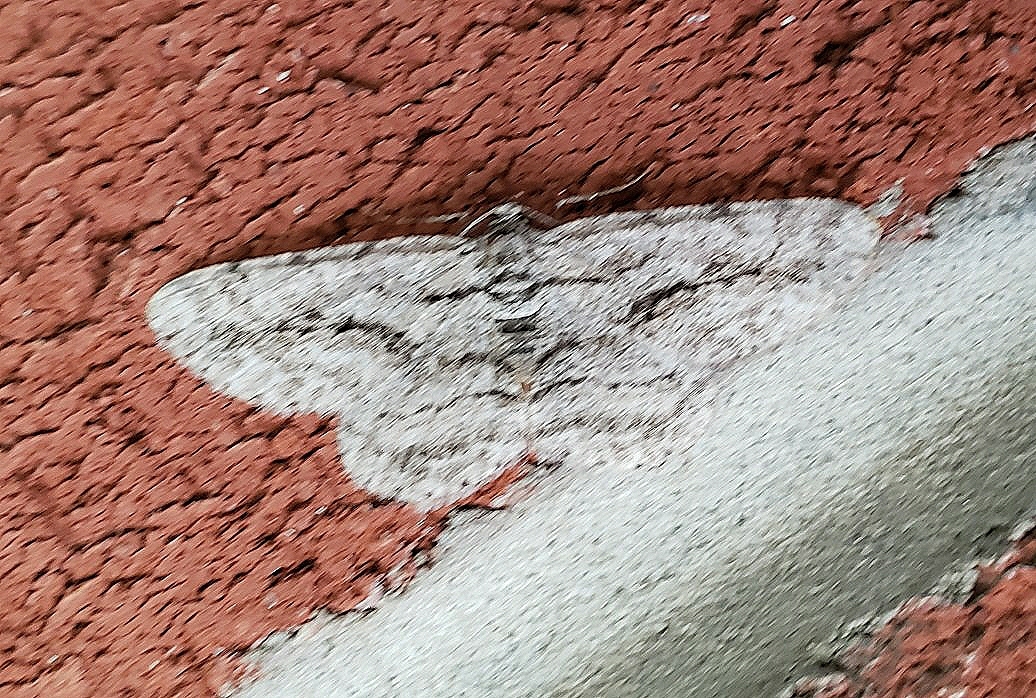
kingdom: Animalia
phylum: Arthropoda
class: Insecta
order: Lepidoptera
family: Geometridae
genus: Anavitrinella
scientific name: Anavitrinella pampinaria
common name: Common gray
